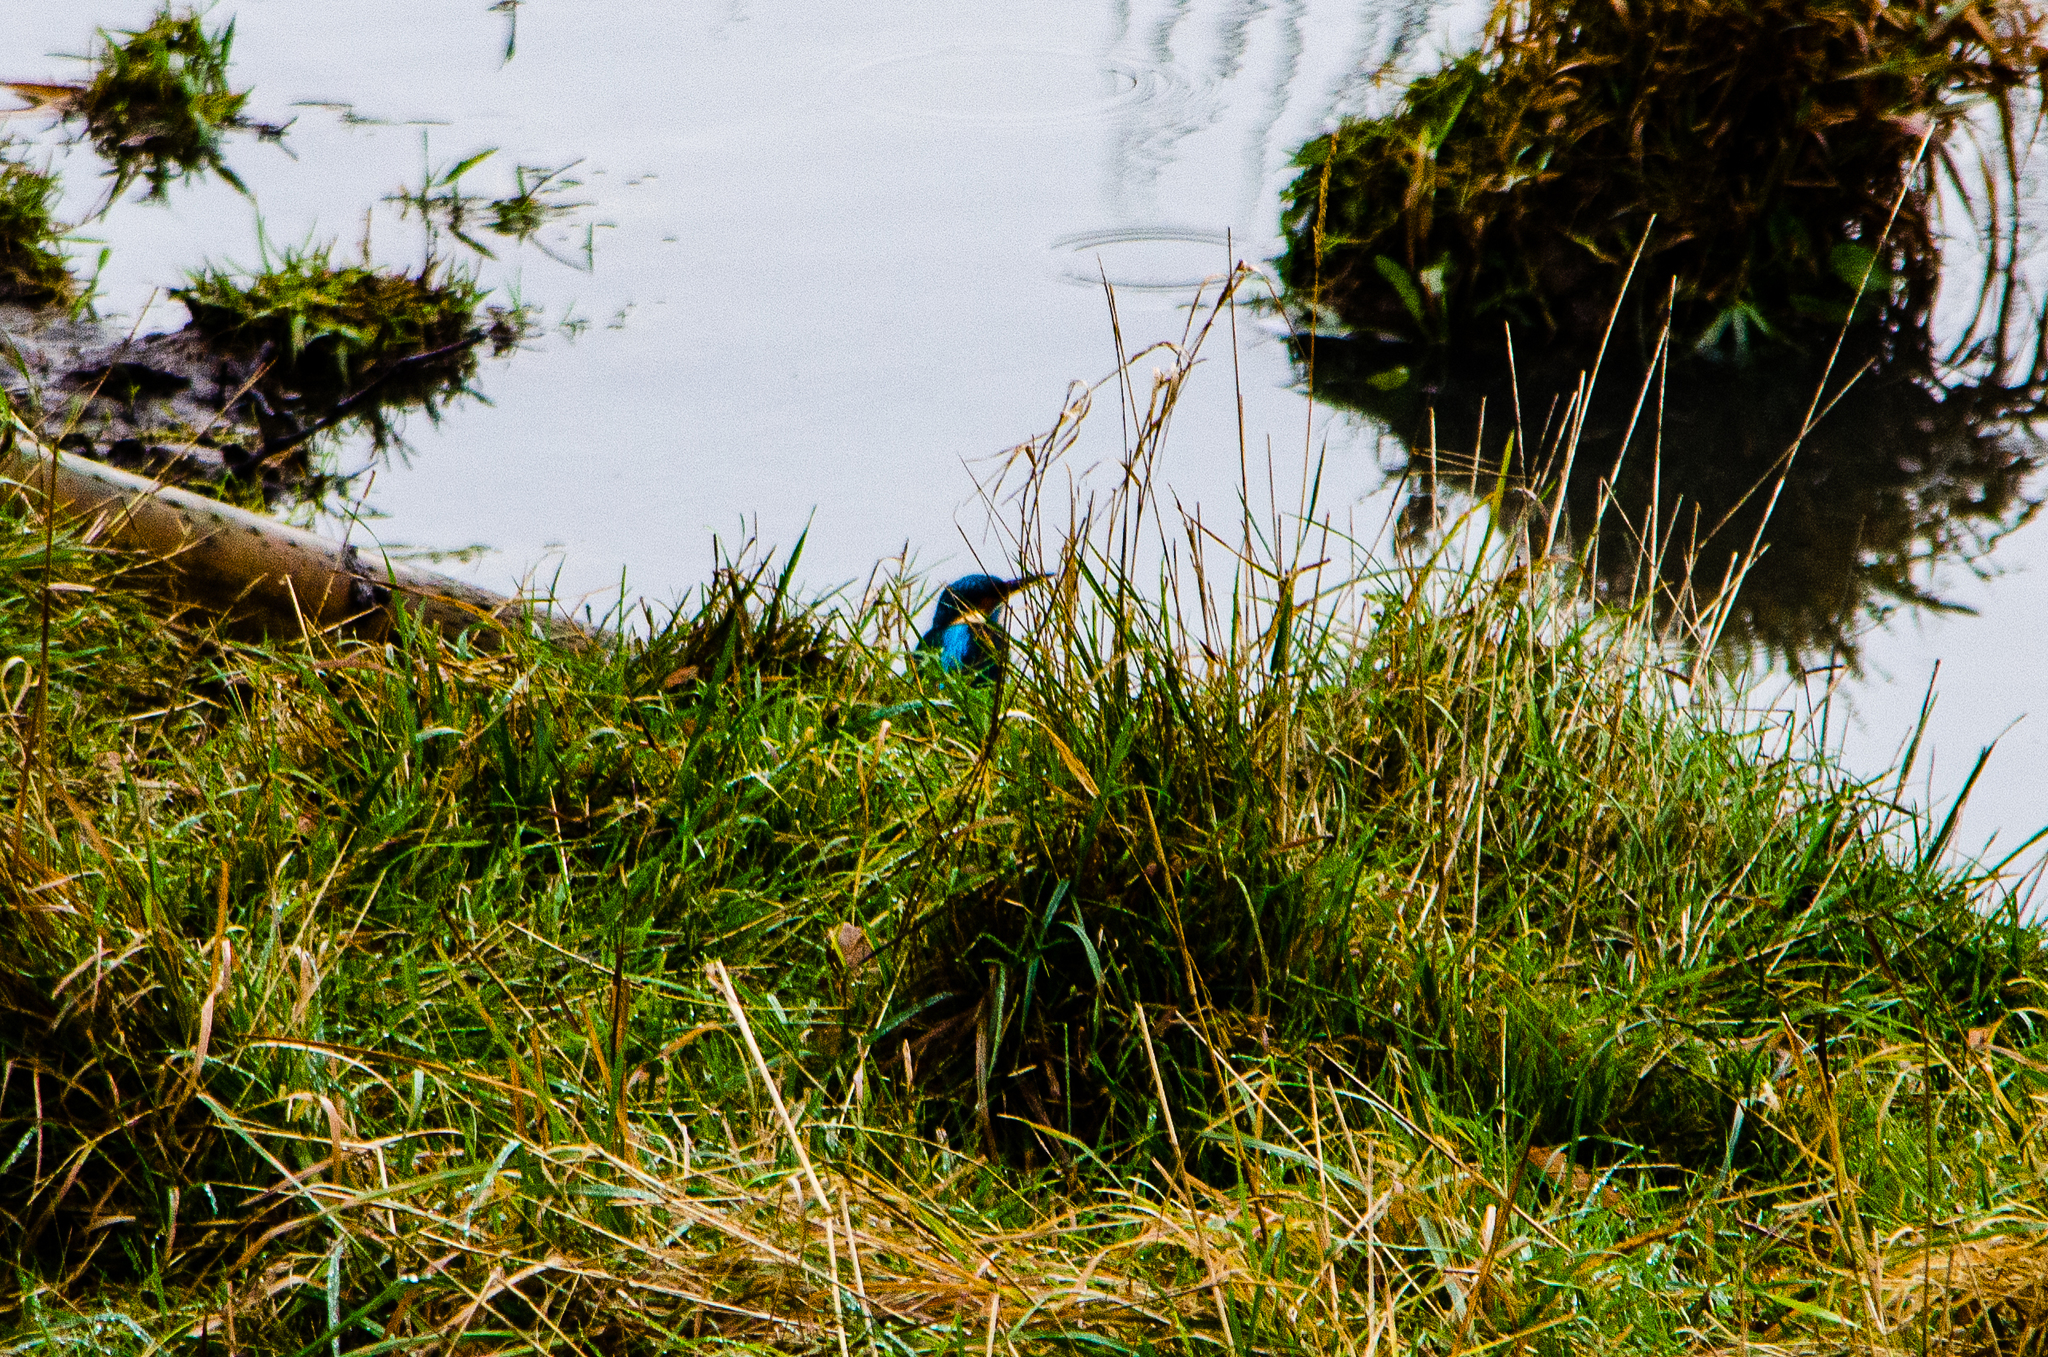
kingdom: Animalia
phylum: Chordata
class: Aves
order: Coraciiformes
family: Alcedinidae
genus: Alcedo
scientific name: Alcedo atthis
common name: Common kingfisher
